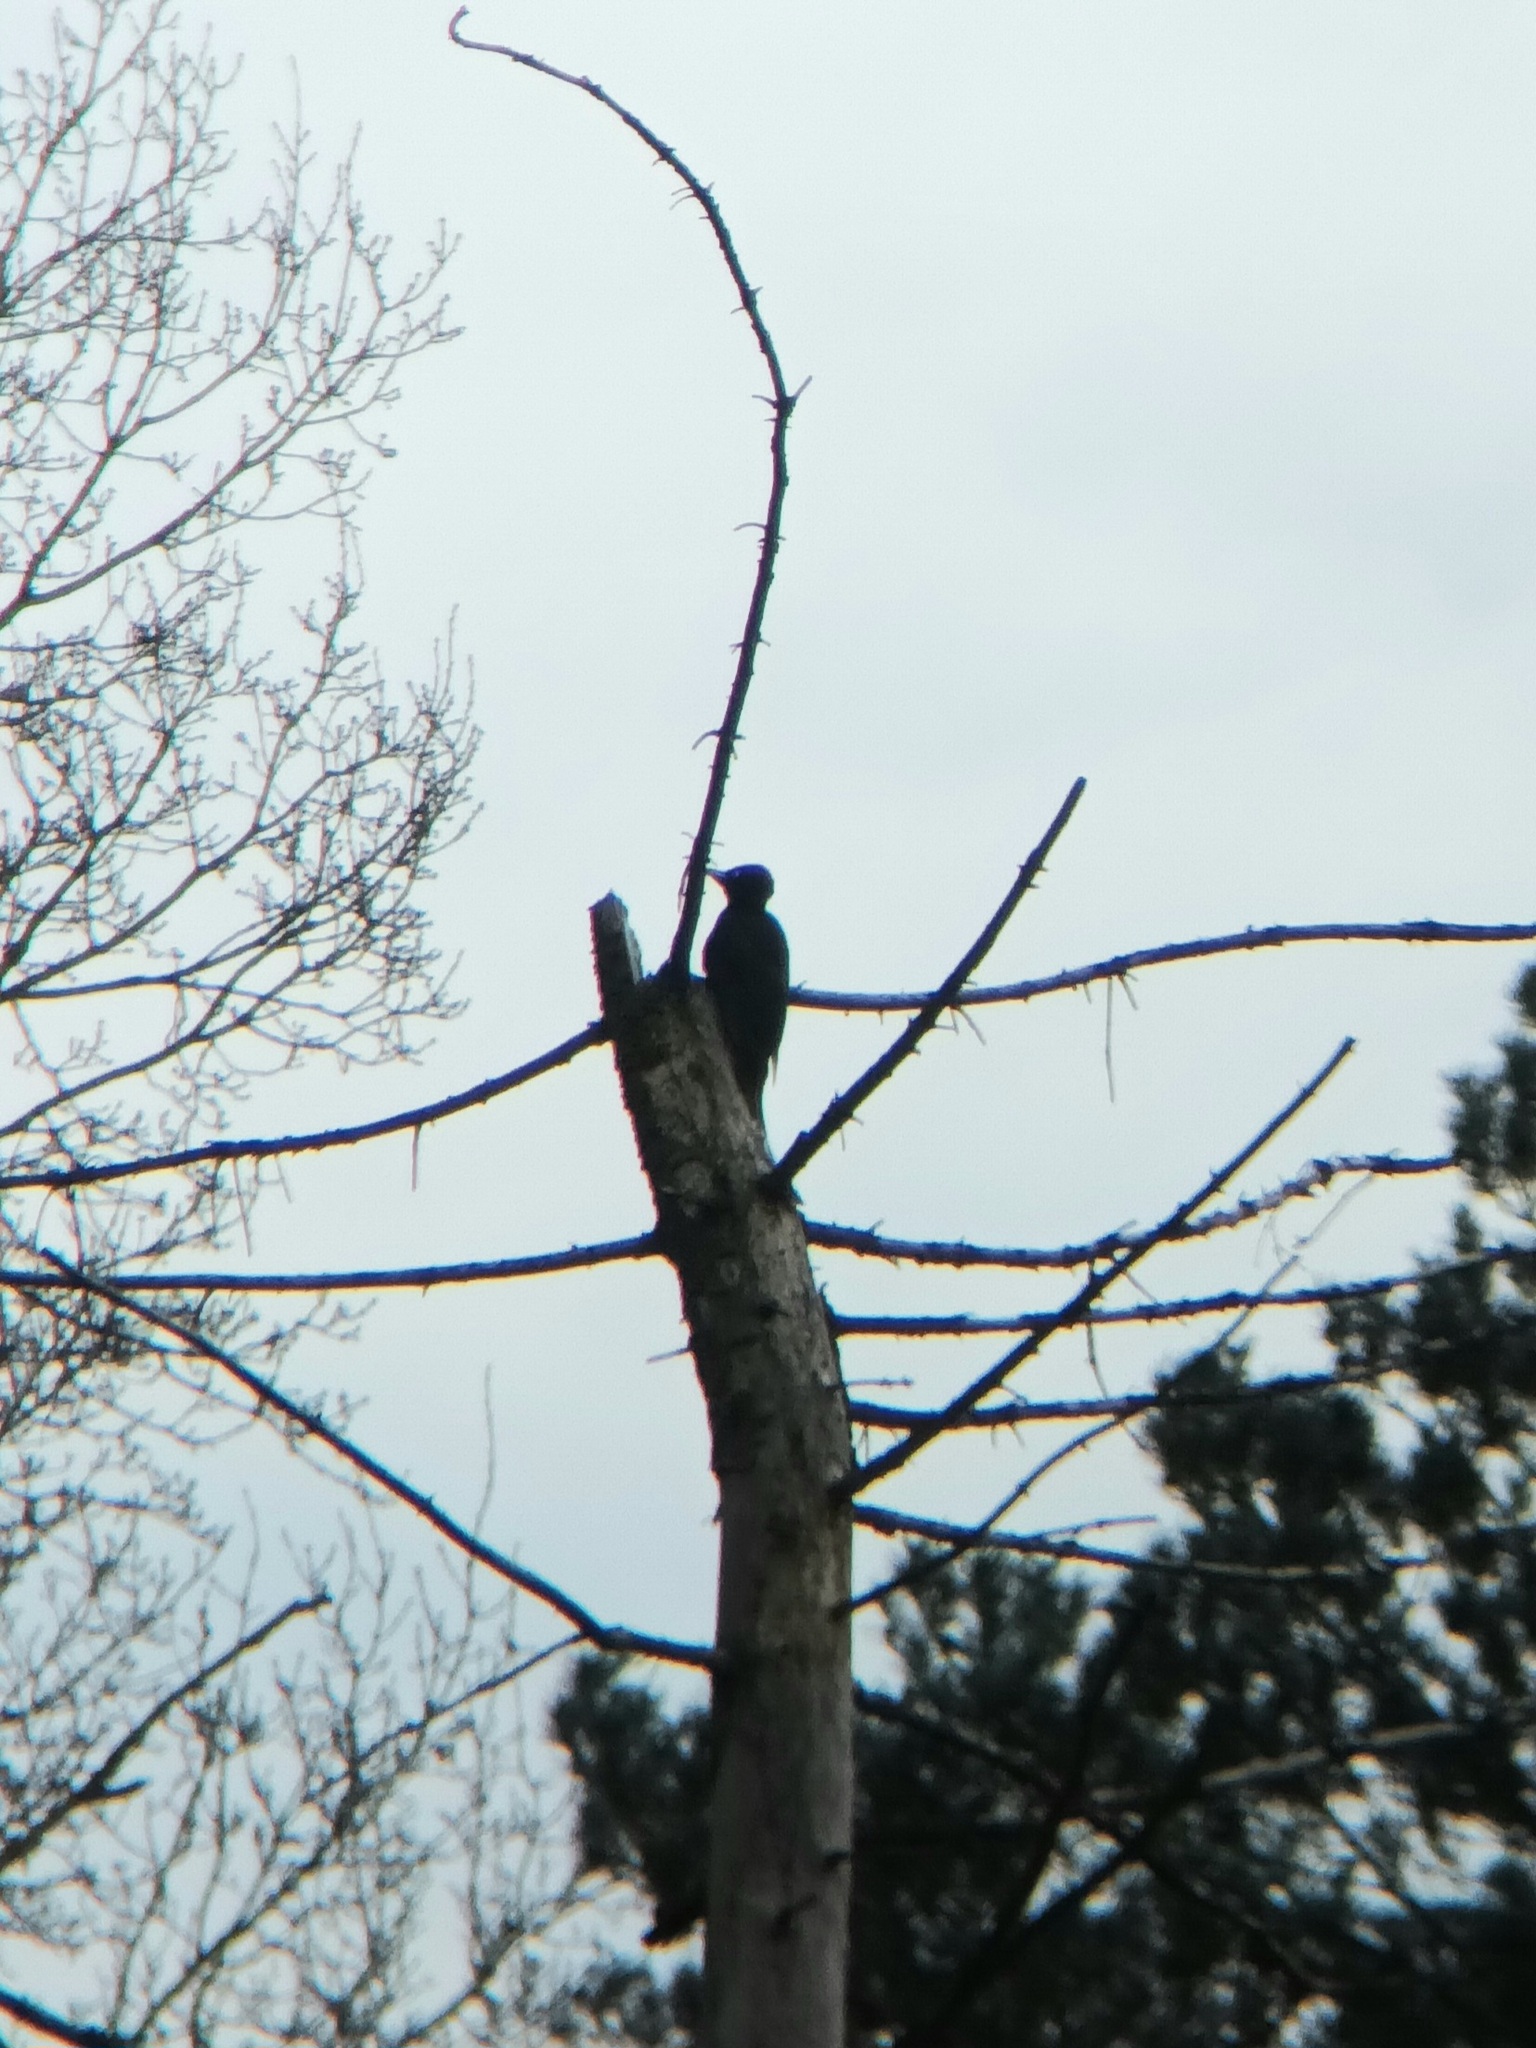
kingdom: Animalia
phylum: Chordata
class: Aves
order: Piciformes
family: Picidae
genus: Dryocopus
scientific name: Dryocopus martius
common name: Black woodpecker
